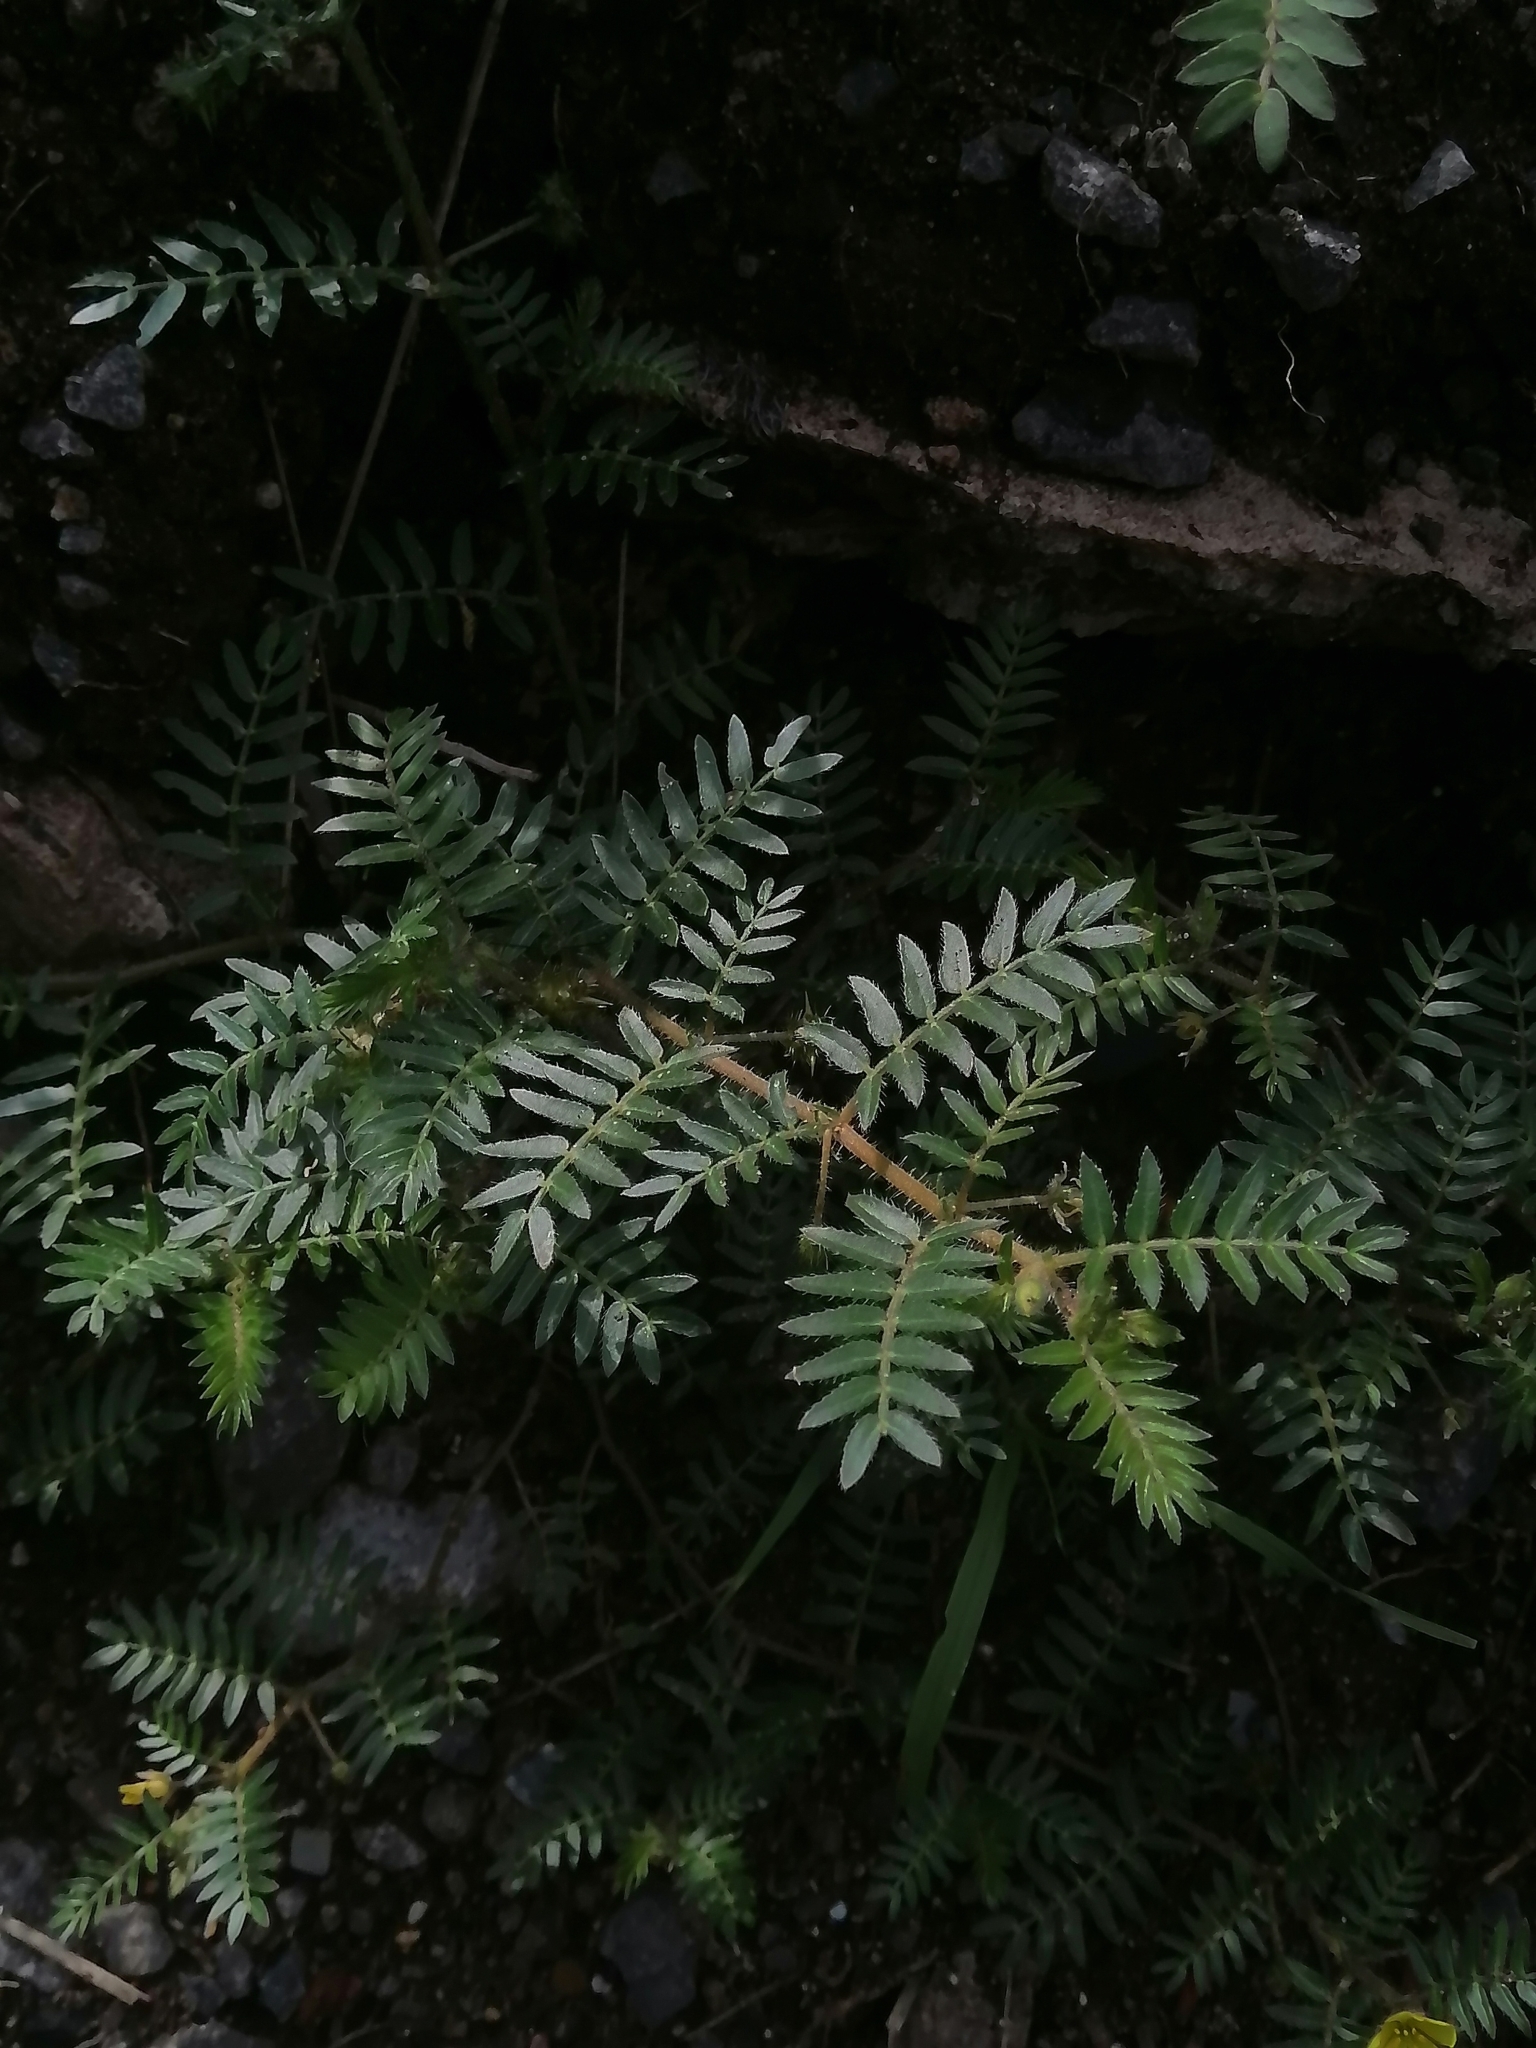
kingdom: Plantae
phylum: Tracheophyta
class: Magnoliopsida
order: Zygophyllales
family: Zygophyllaceae
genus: Tribulus
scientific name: Tribulus terrestris
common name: Puncturevine
